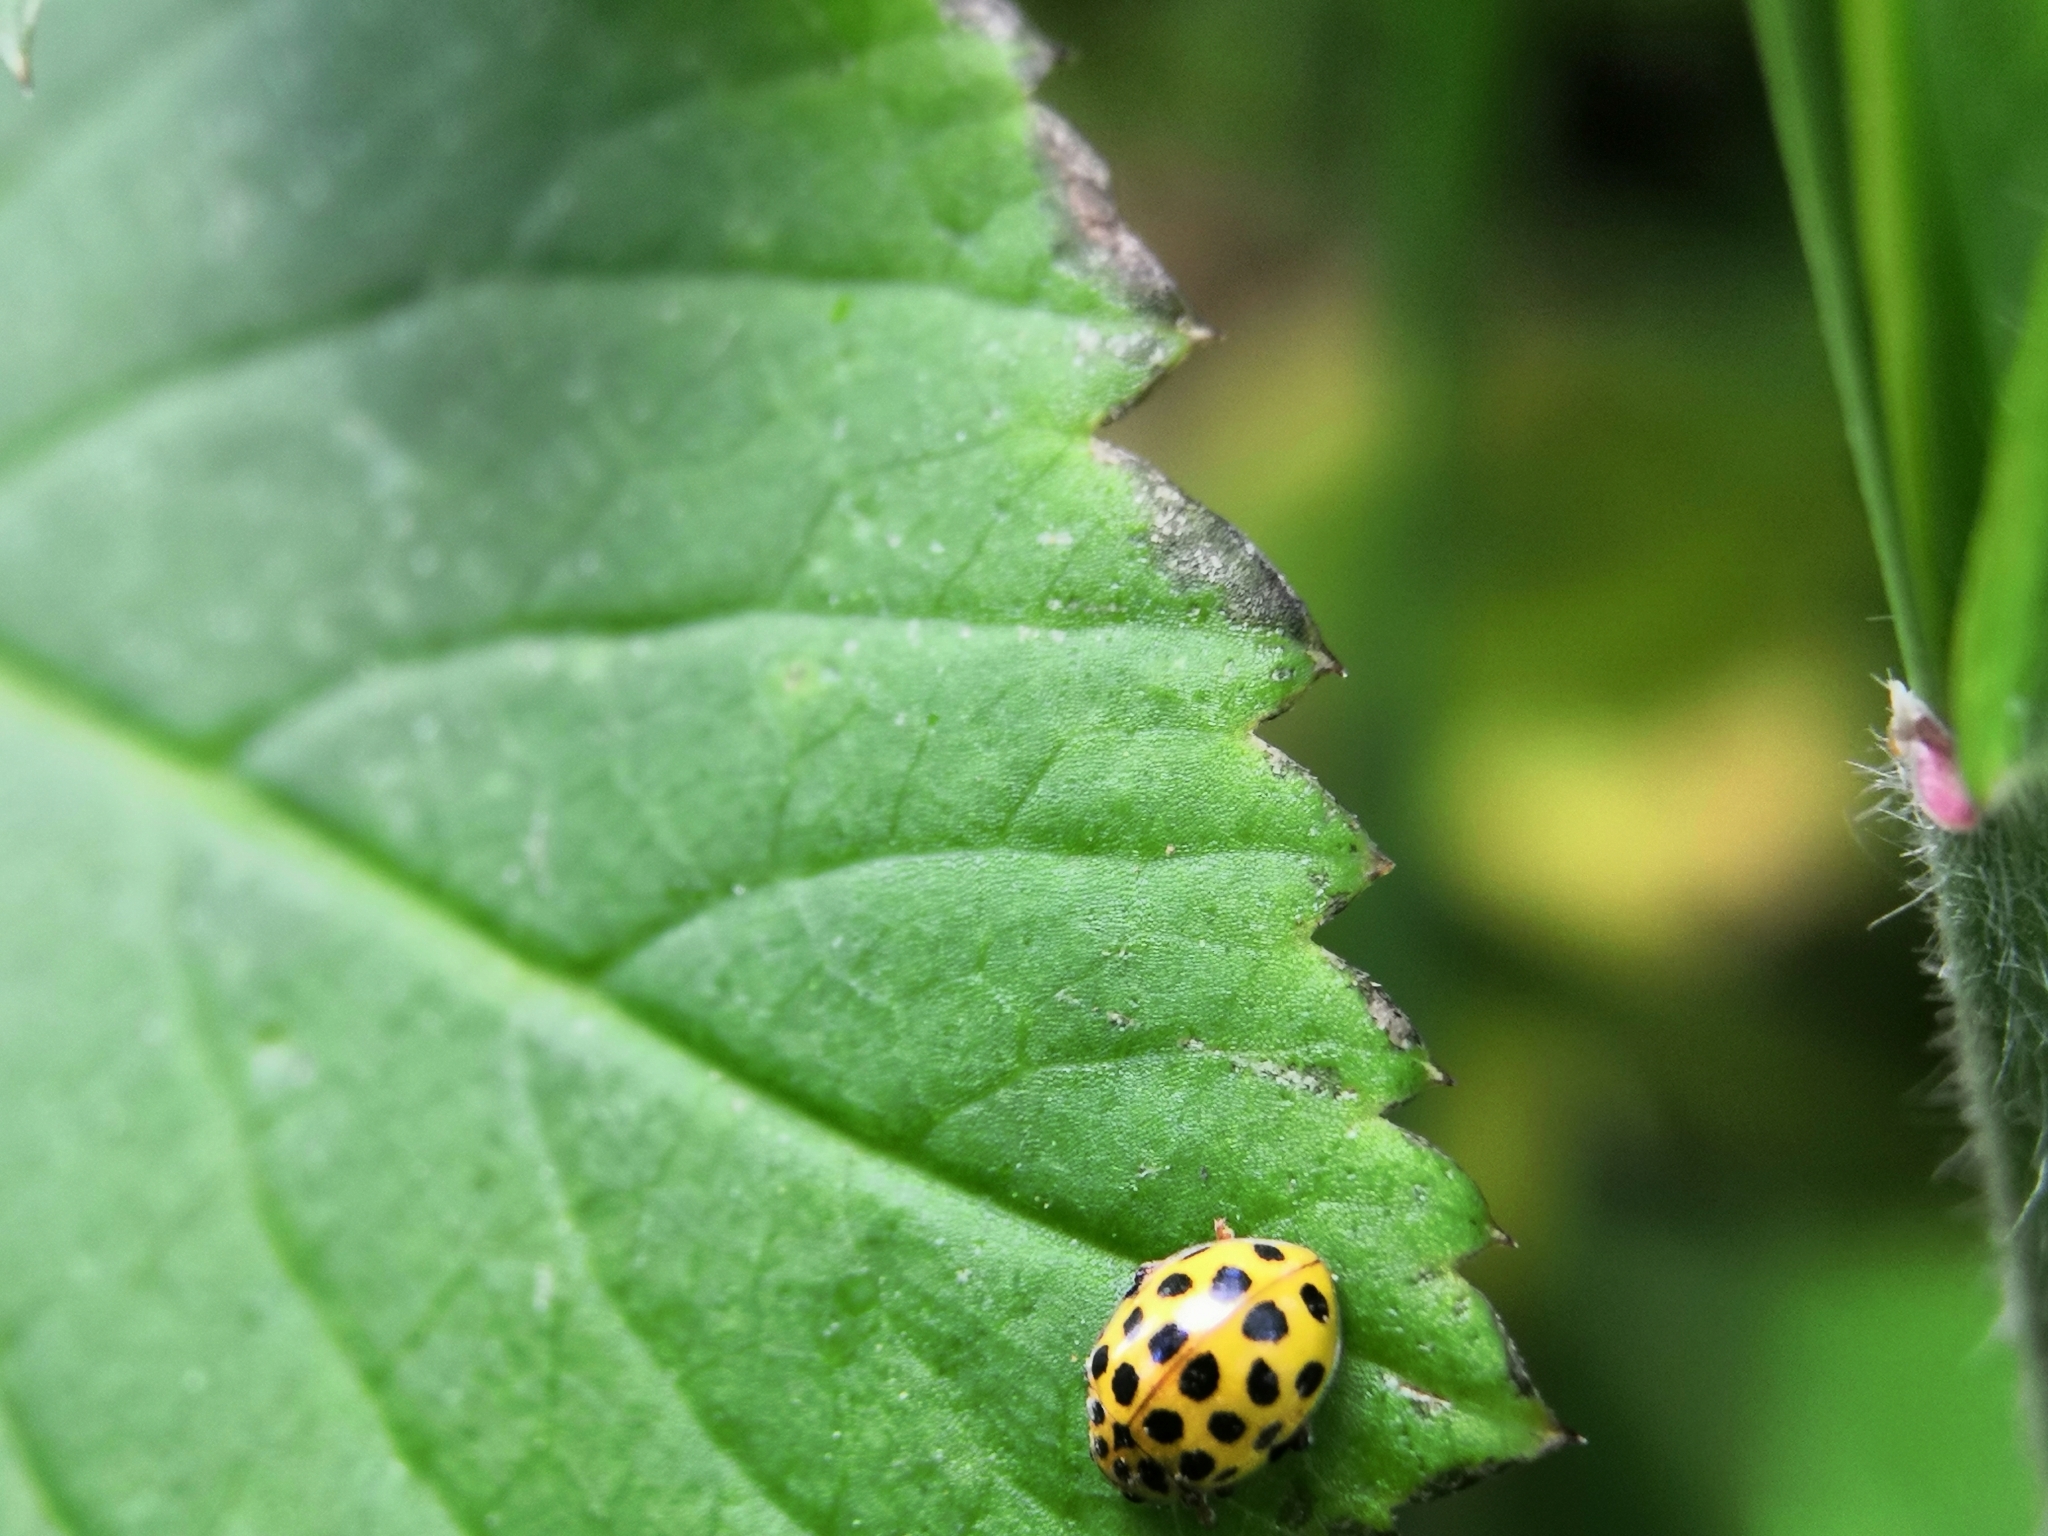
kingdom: Animalia
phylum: Arthropoda
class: Insecta
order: Coleoptera
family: Coccinellidae
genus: Psyllobora
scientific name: Psyllobora vigintiduopunctata
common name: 22-spot ladybird
